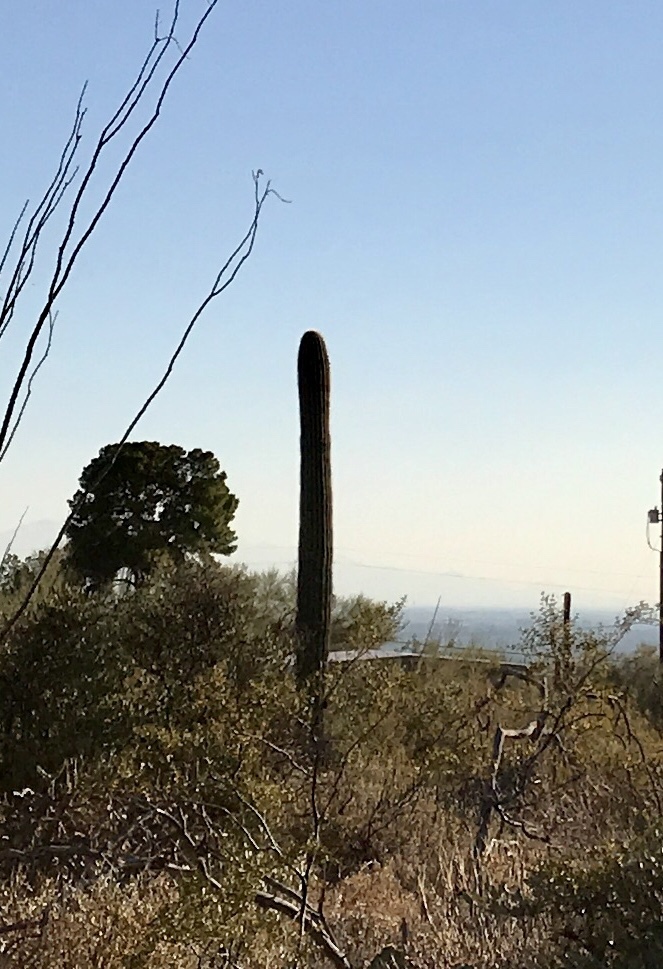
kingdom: Plantae
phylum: Tracheophyta
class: Magnoliopsida
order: Caryophyllales
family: Cactaceae
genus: Carnegiea
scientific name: Carnegiea gigantea
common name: Saguaro
